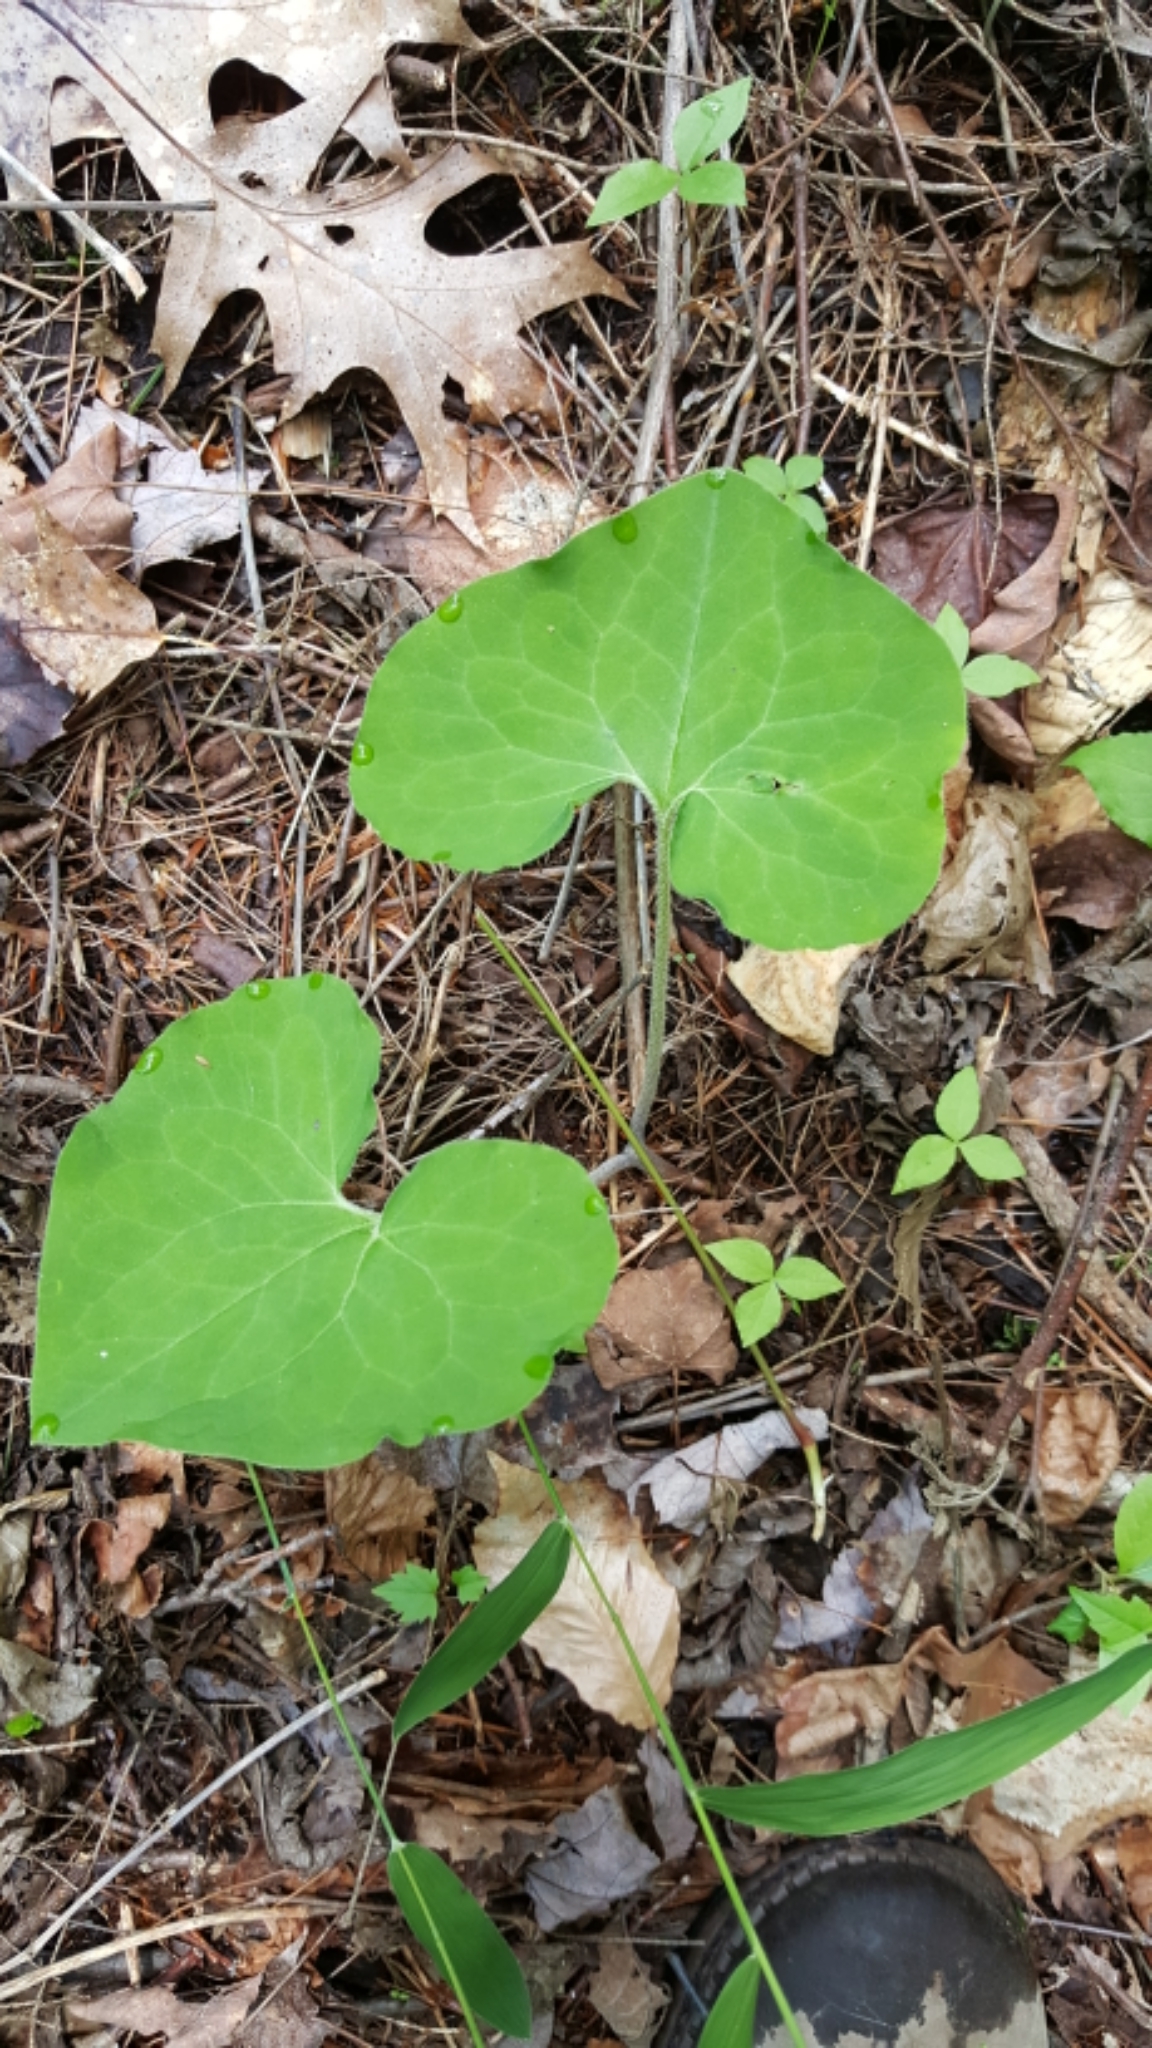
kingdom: Plantae
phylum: Tracheophyta
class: Magnoliopsida
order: Piperales
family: Aristolochiaceae
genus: Asarum
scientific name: Asarum canadense
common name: Wild ginger
